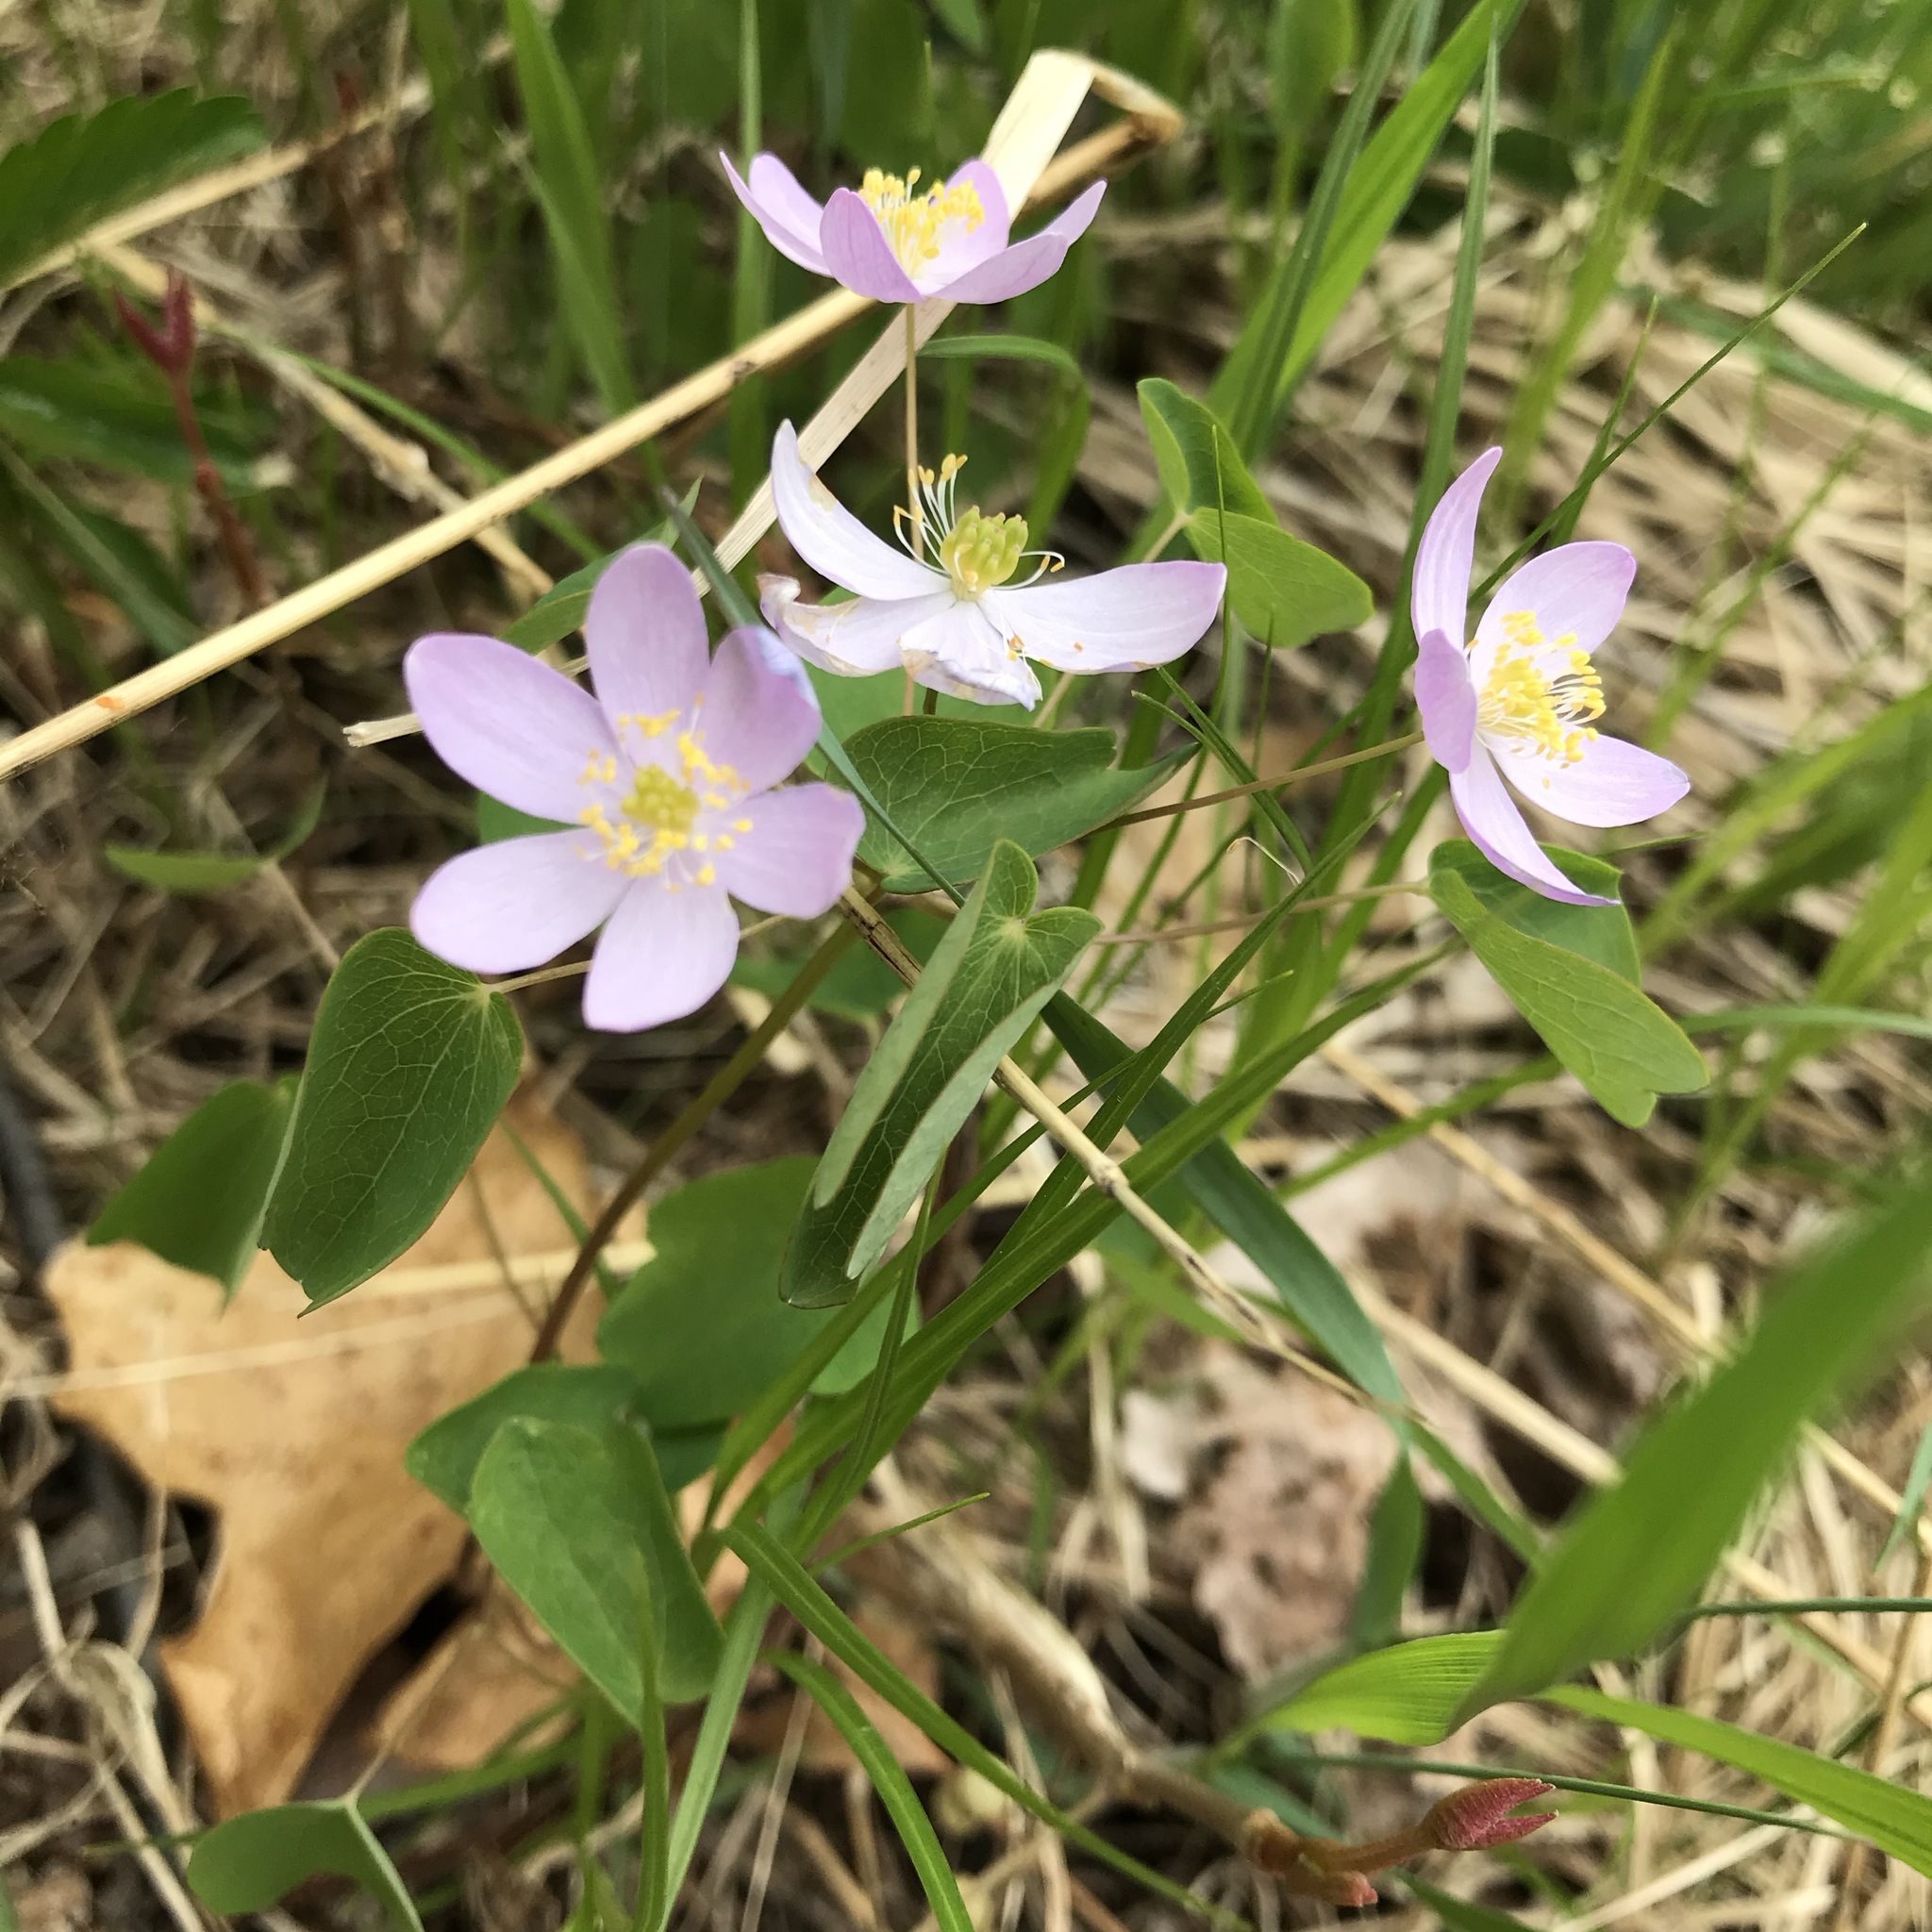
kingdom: Plantae
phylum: Tracheophyta
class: Magnoliopsida
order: Ranunculales
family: Ranunculaceae
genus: Thalictrum
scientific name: Thalictrum thalictroides
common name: Rue-anemone
